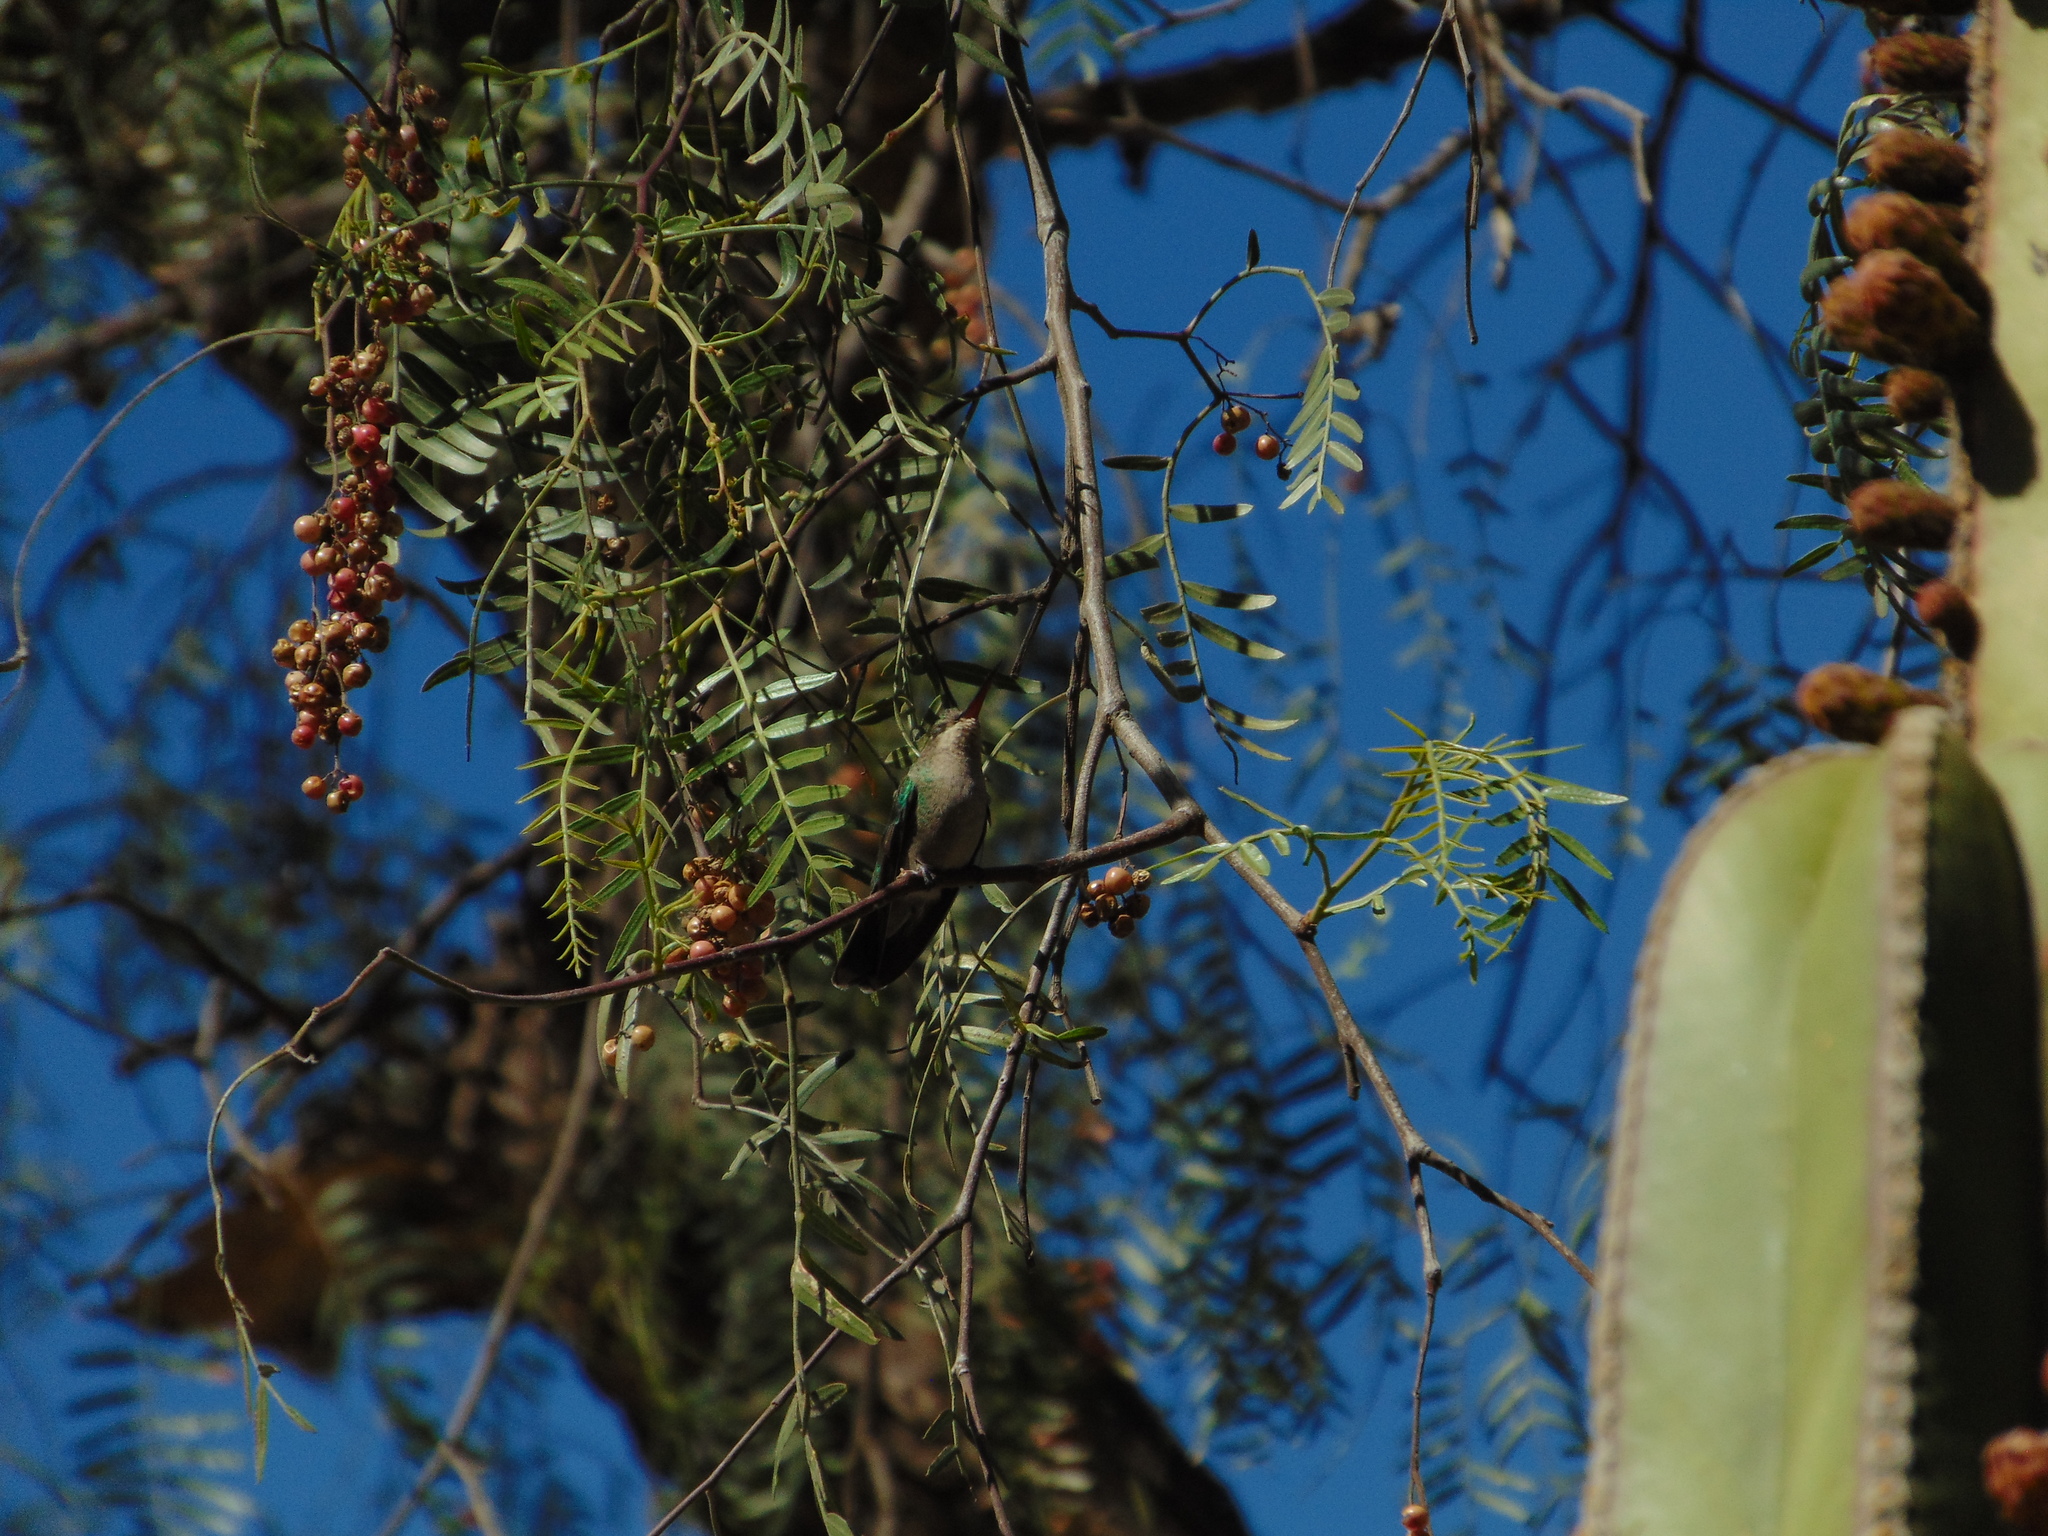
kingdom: Animalia
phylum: Chordata
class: Aves
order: Apodiformes
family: Trochilidae
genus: Cynanthus
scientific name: Cynanthus latirostris
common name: Broad-billed hummingbird
